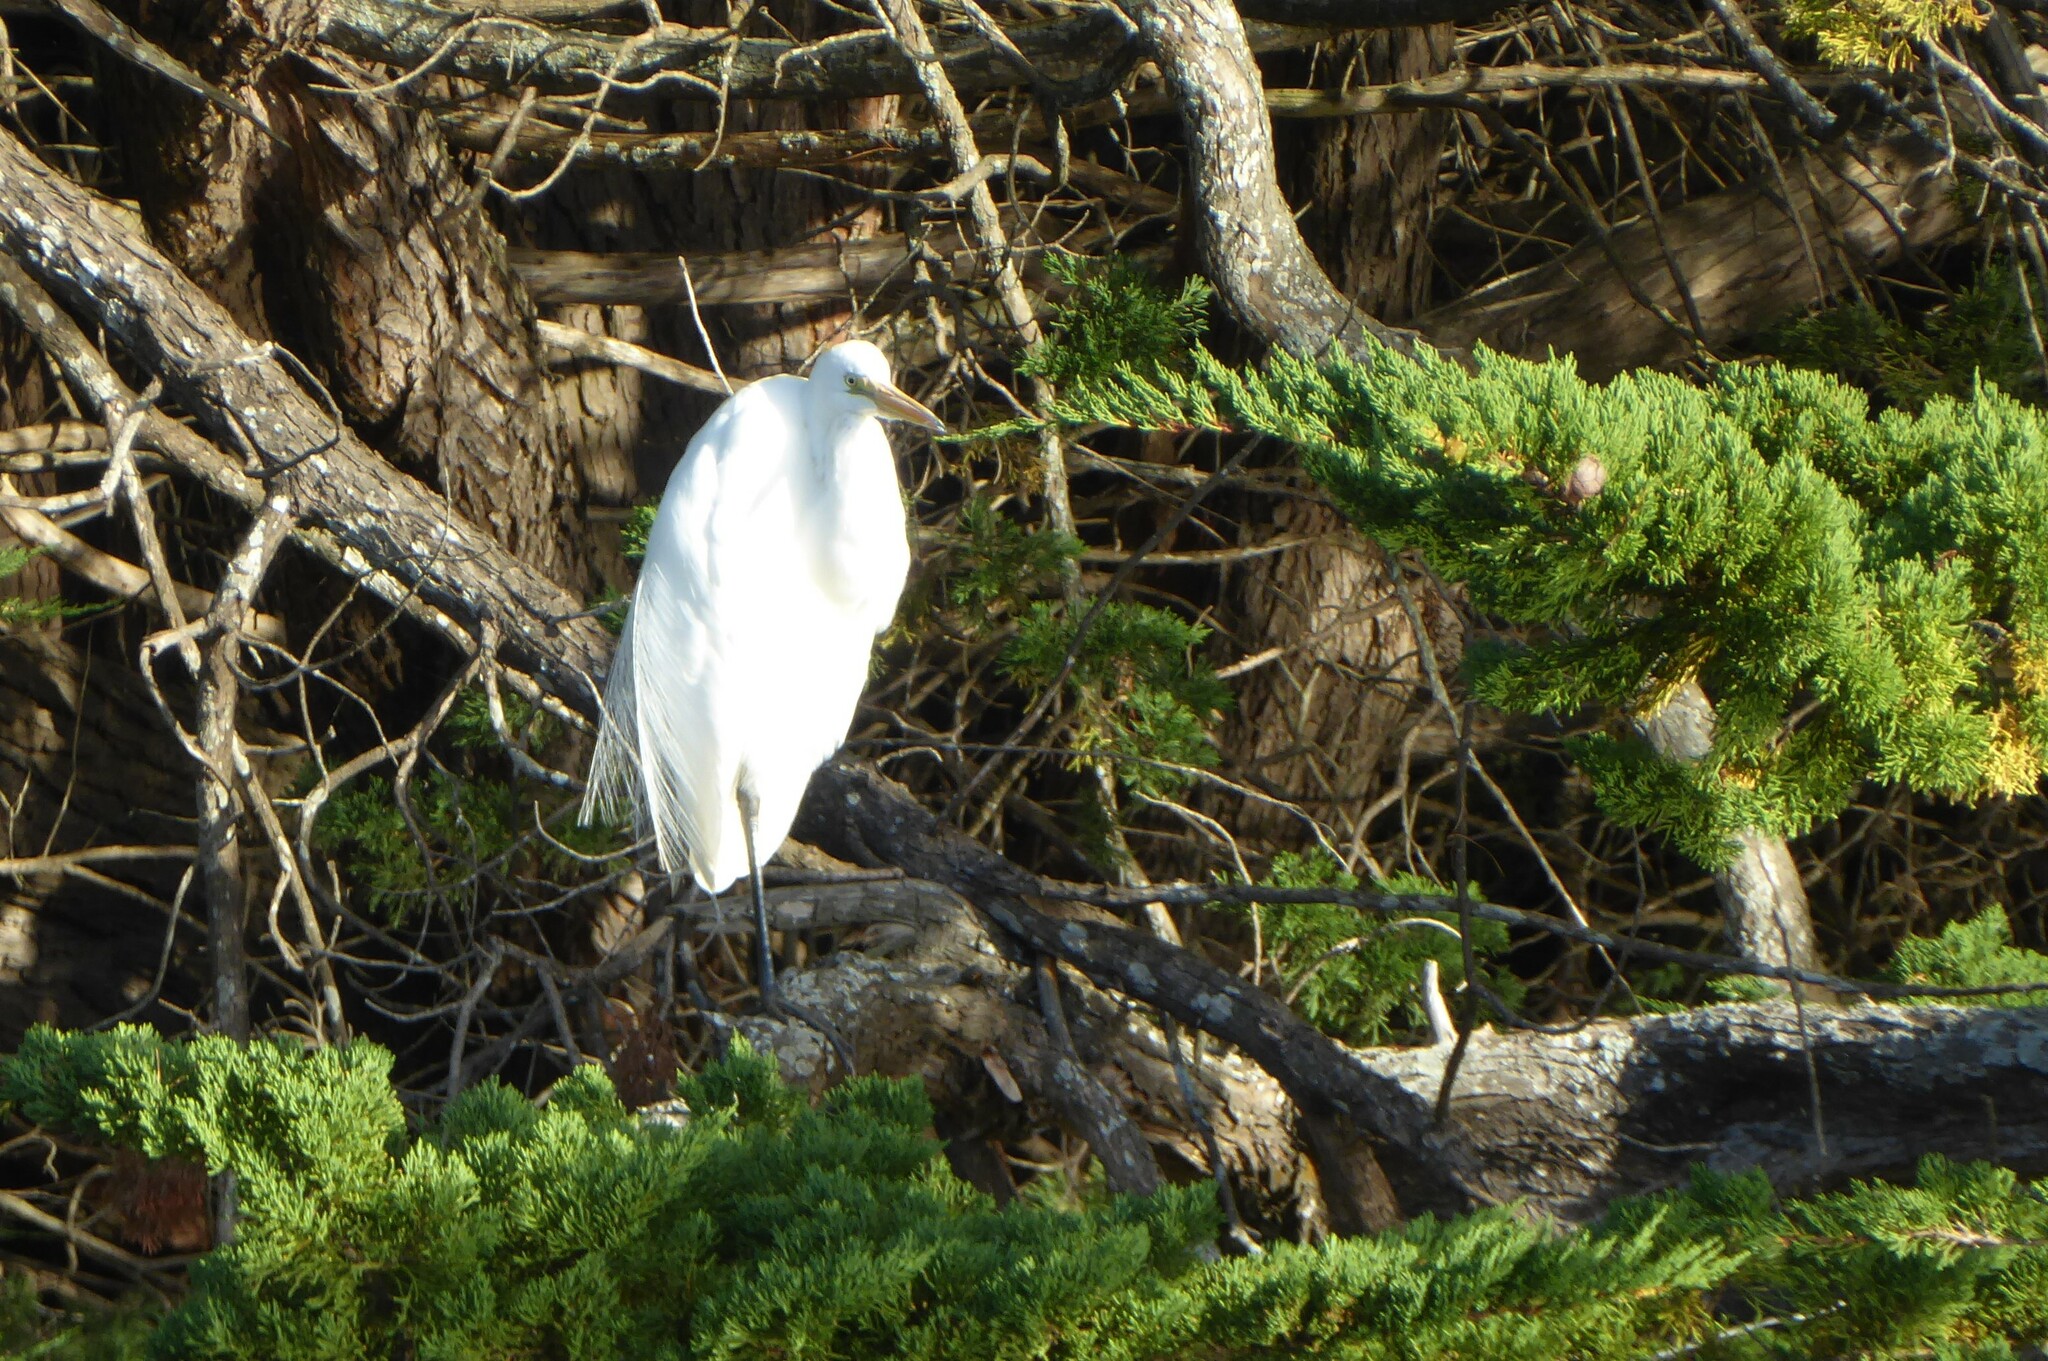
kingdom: Animalia
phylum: Chordata
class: Aves
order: Pelecaniformes
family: Ardeidae
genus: Ardea
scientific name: Ardea modesta
